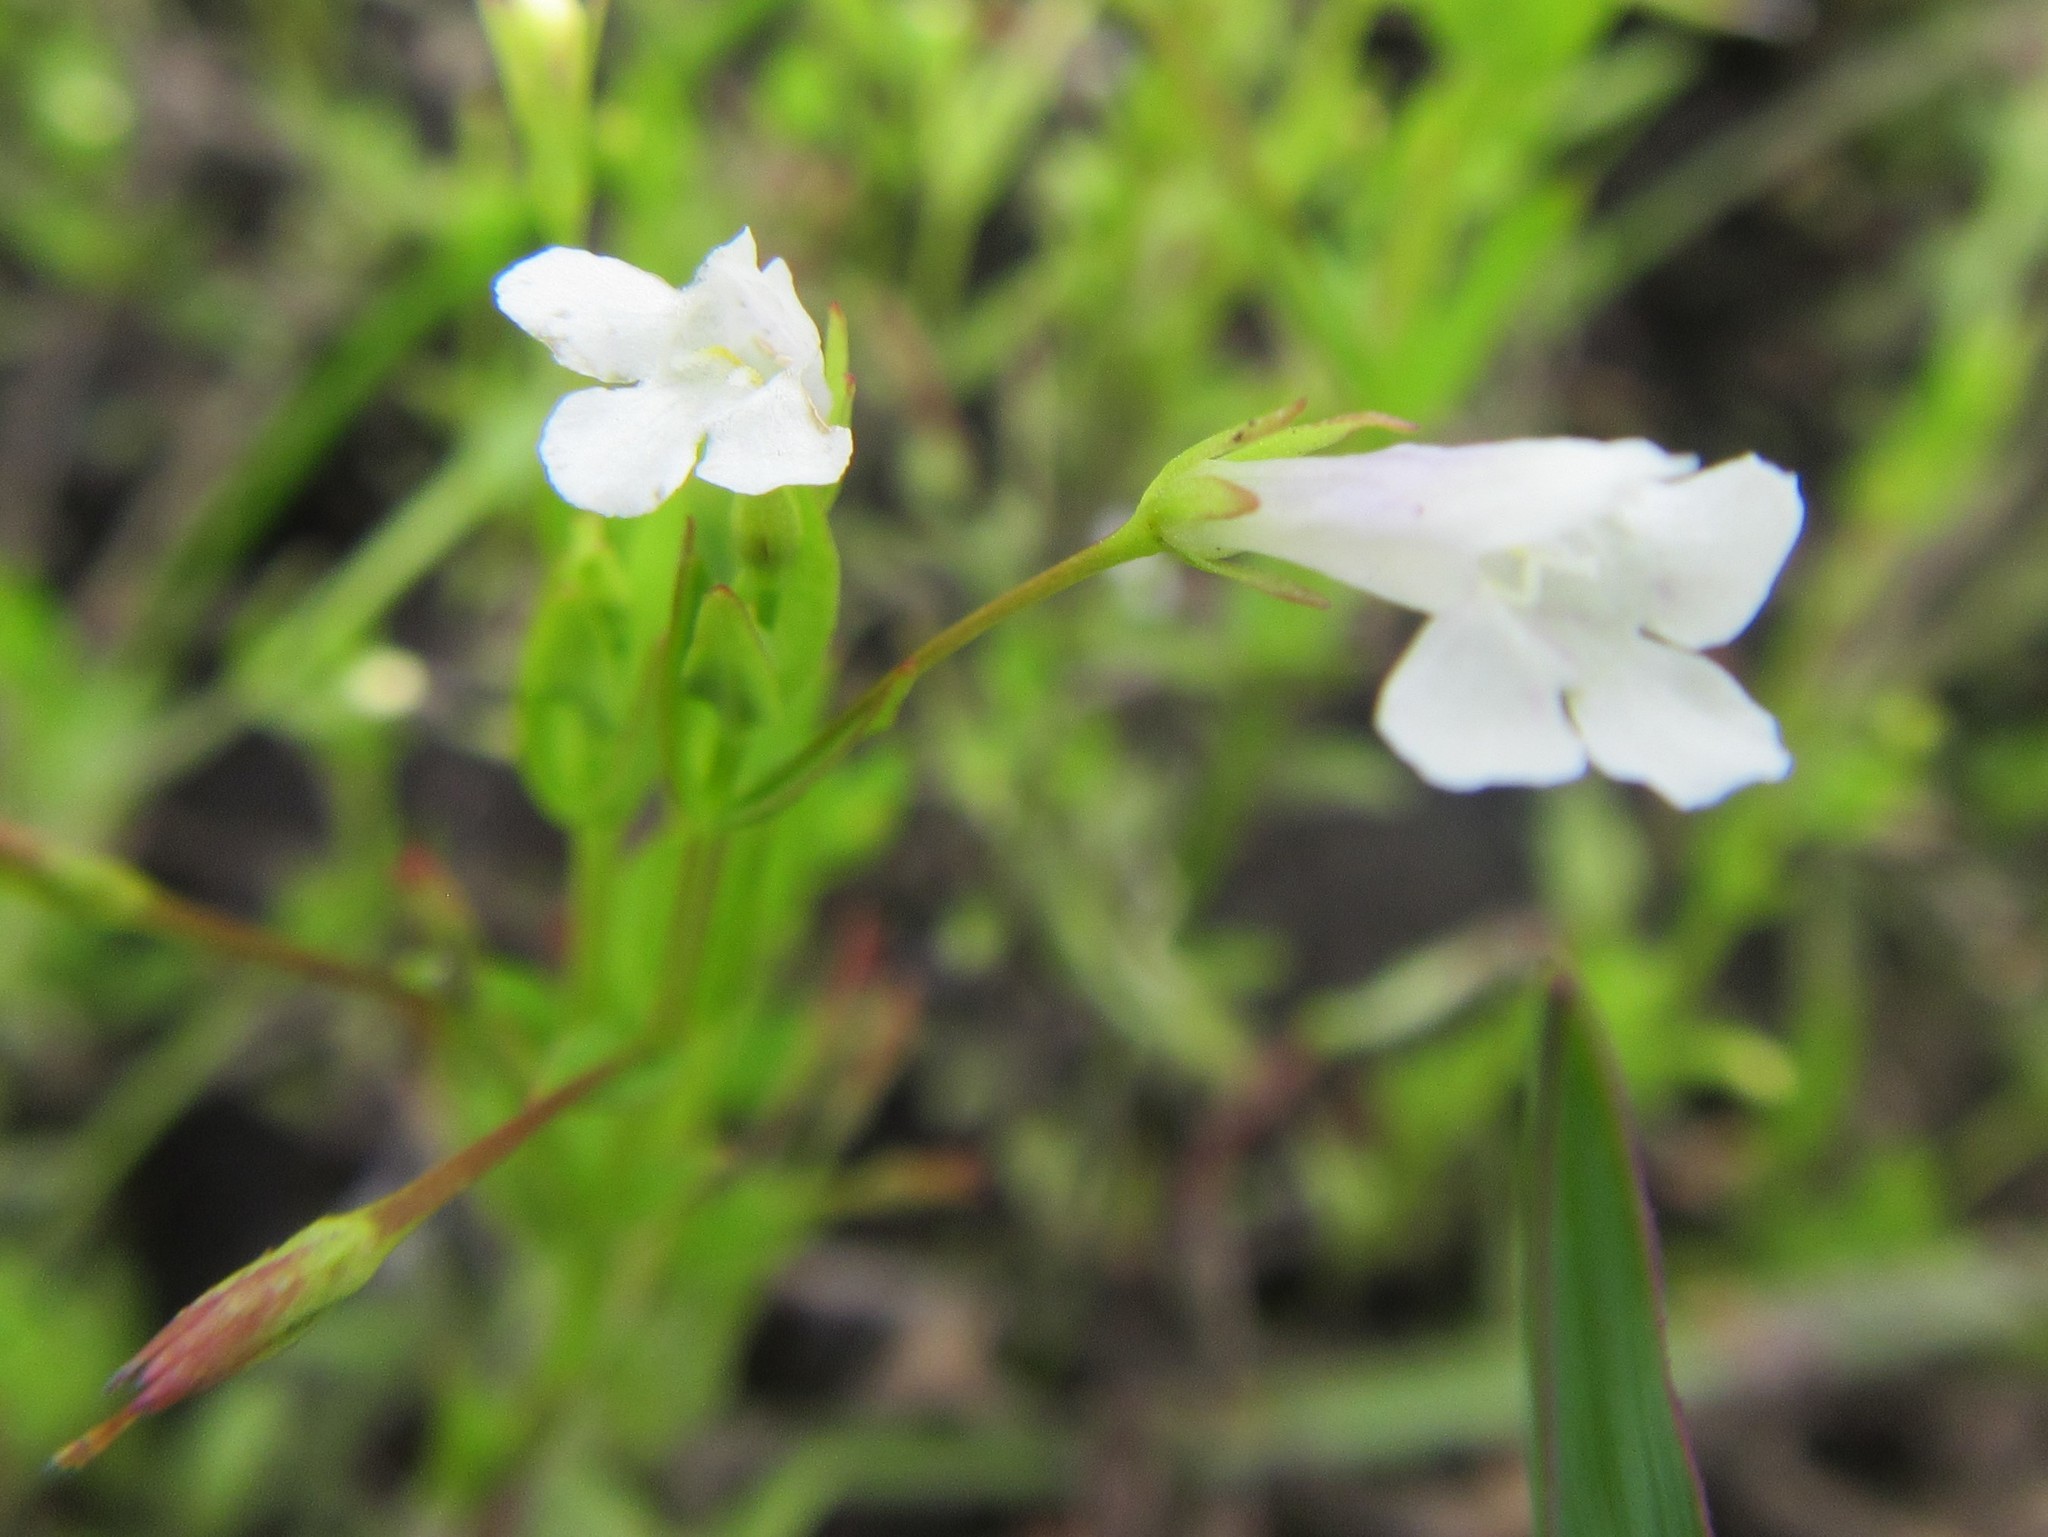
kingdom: Plantae
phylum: Tracheophyta
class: Magnoliopsida
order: Lamiales
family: Linderniaceae
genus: Lindernia
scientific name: Lindernia parviflora
